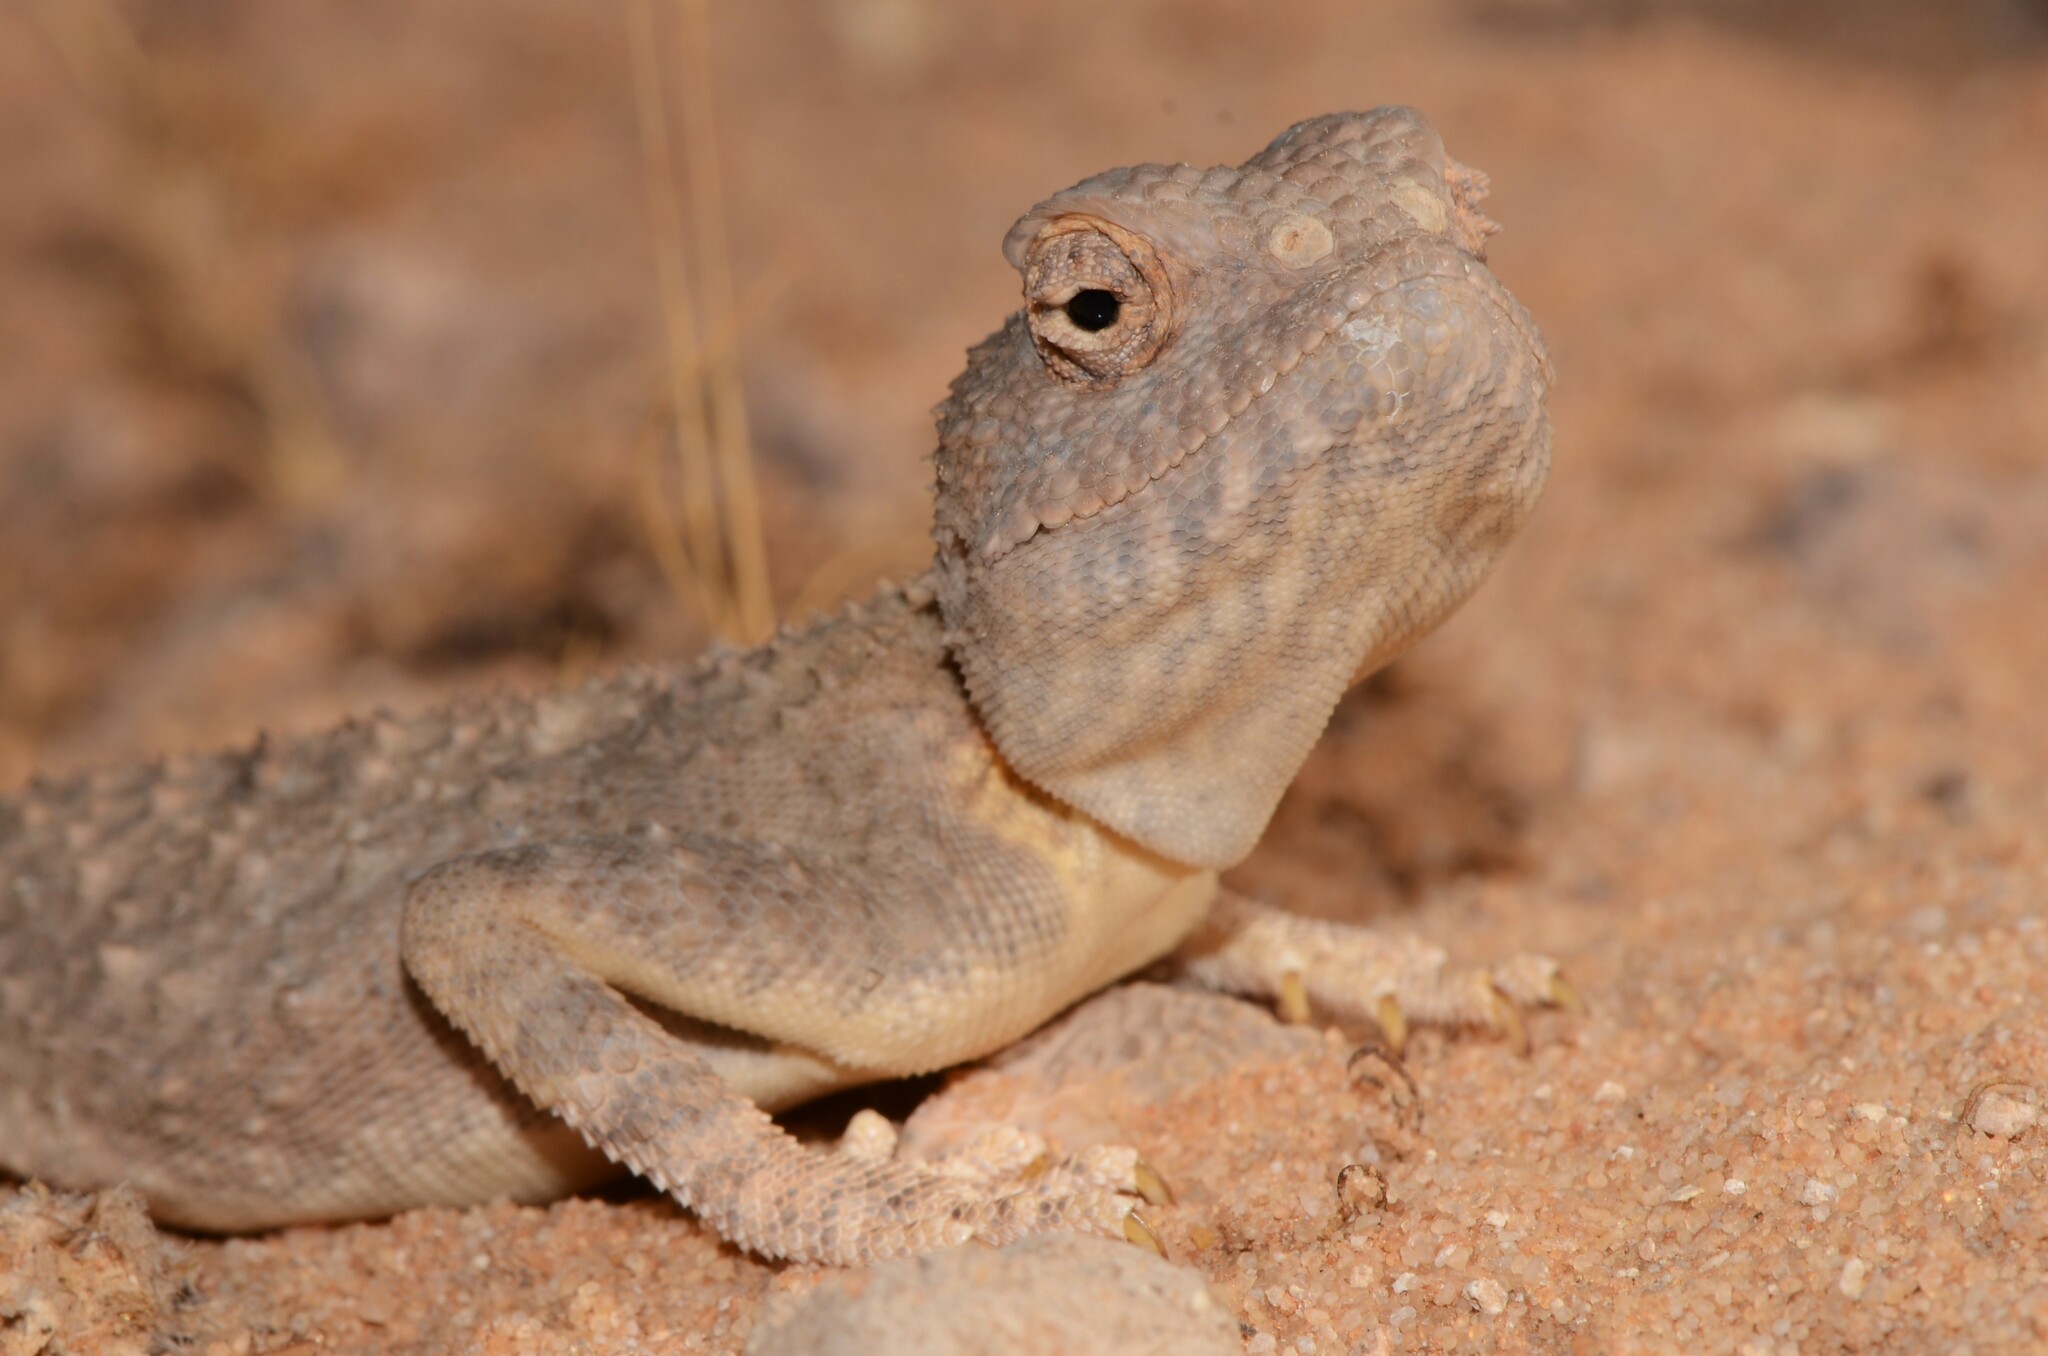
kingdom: Animalia
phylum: Chordata
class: Squamata
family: Agamidae
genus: Trapelus
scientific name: Trapelus agnetae
